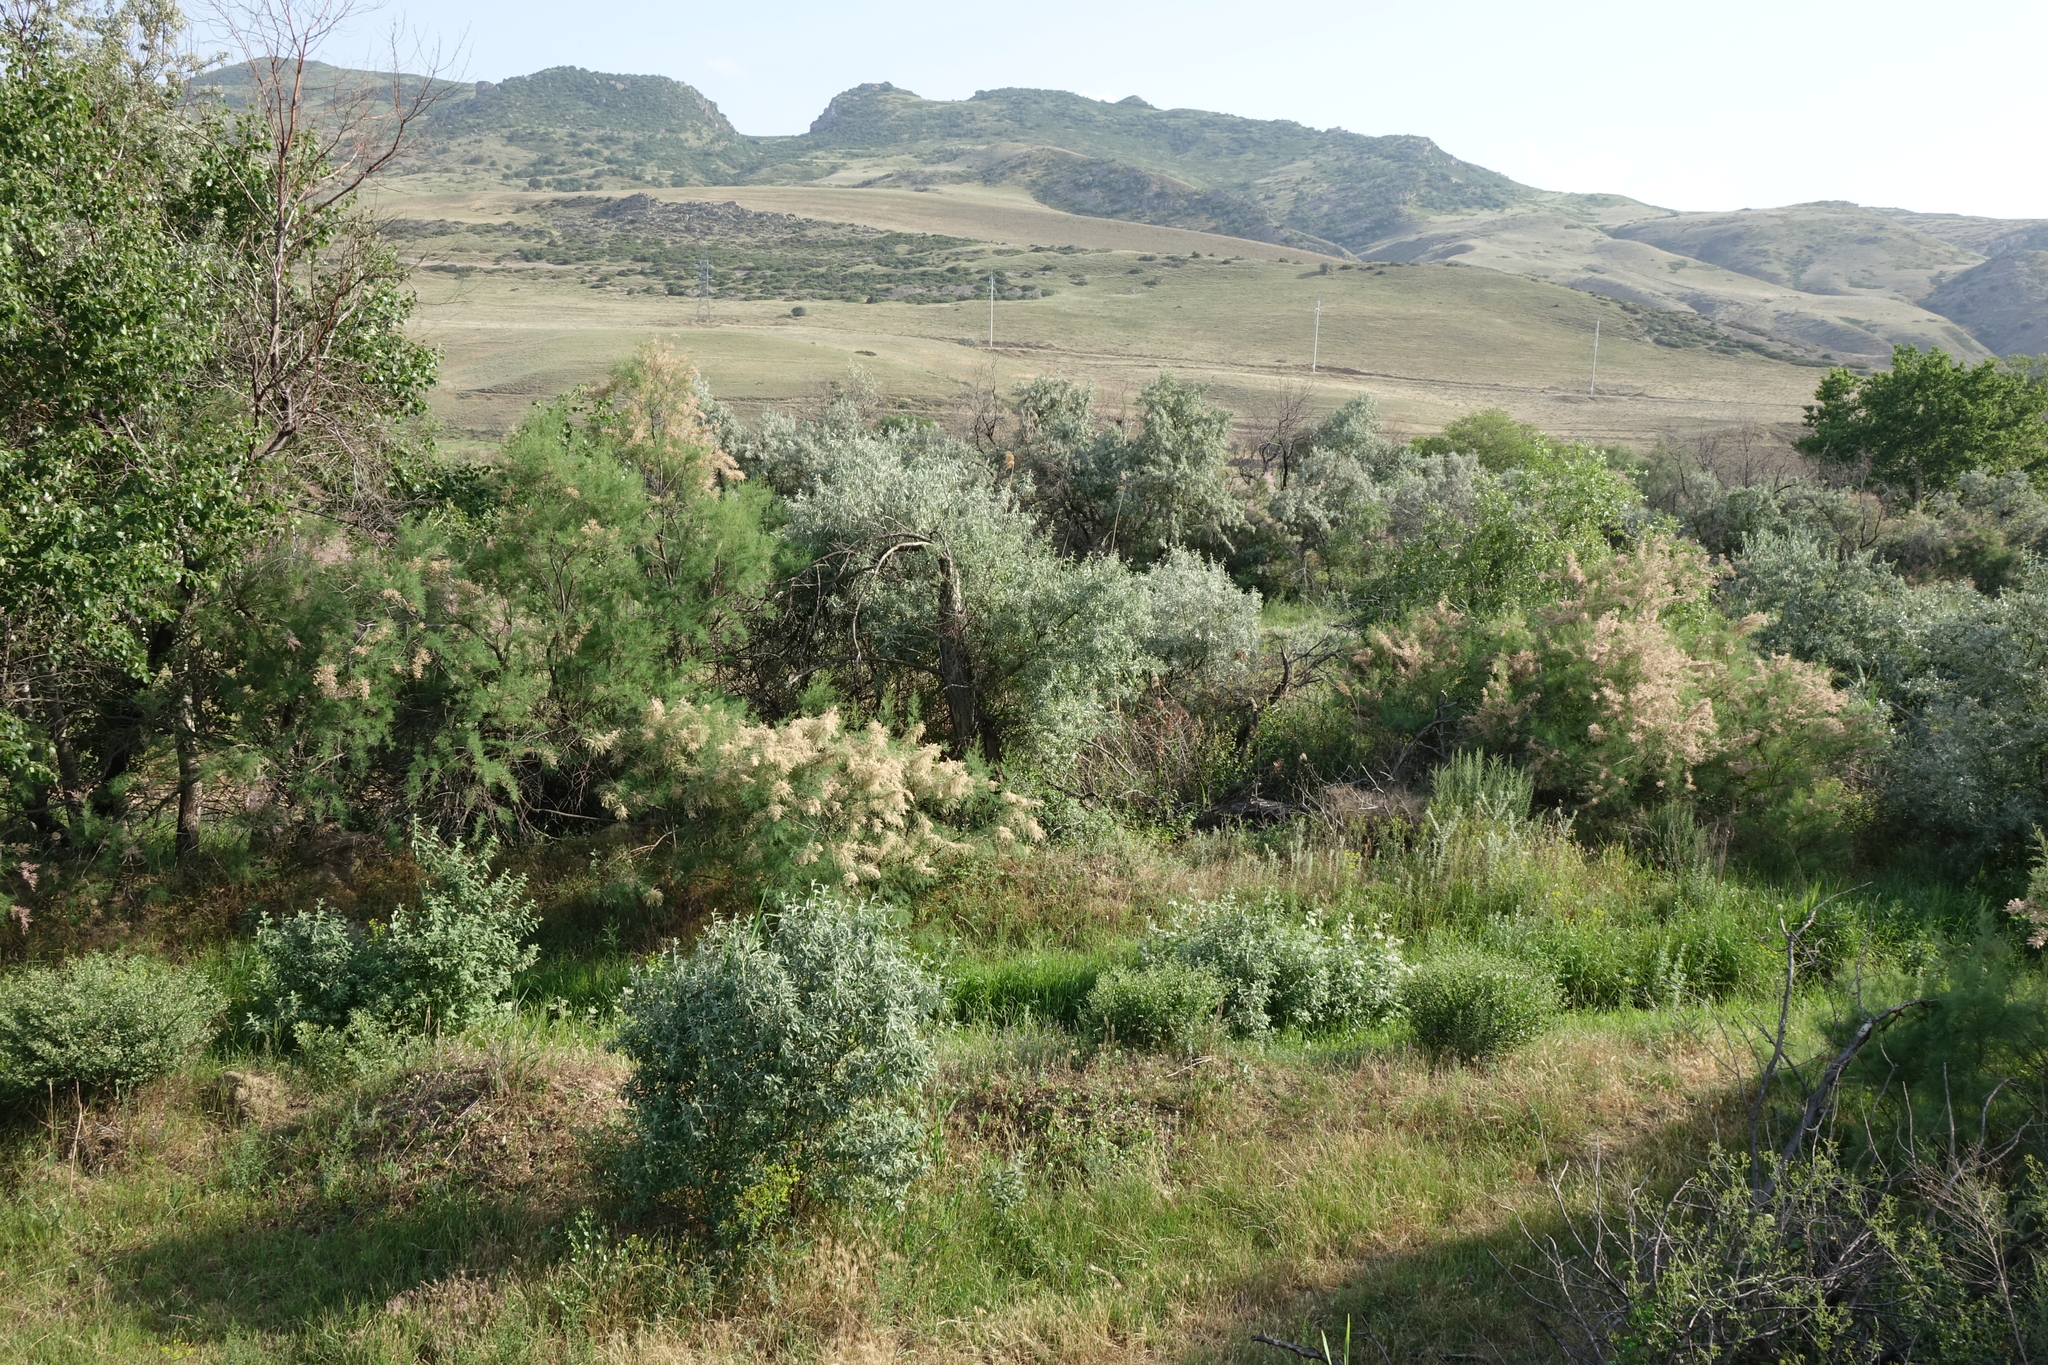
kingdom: Plantae
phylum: Tracheophyta
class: Magnoliopsida
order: Rosales
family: Elaeagnaceae
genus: Elaeagnus
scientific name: Elaeagnus angustifolia
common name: Russian olive
